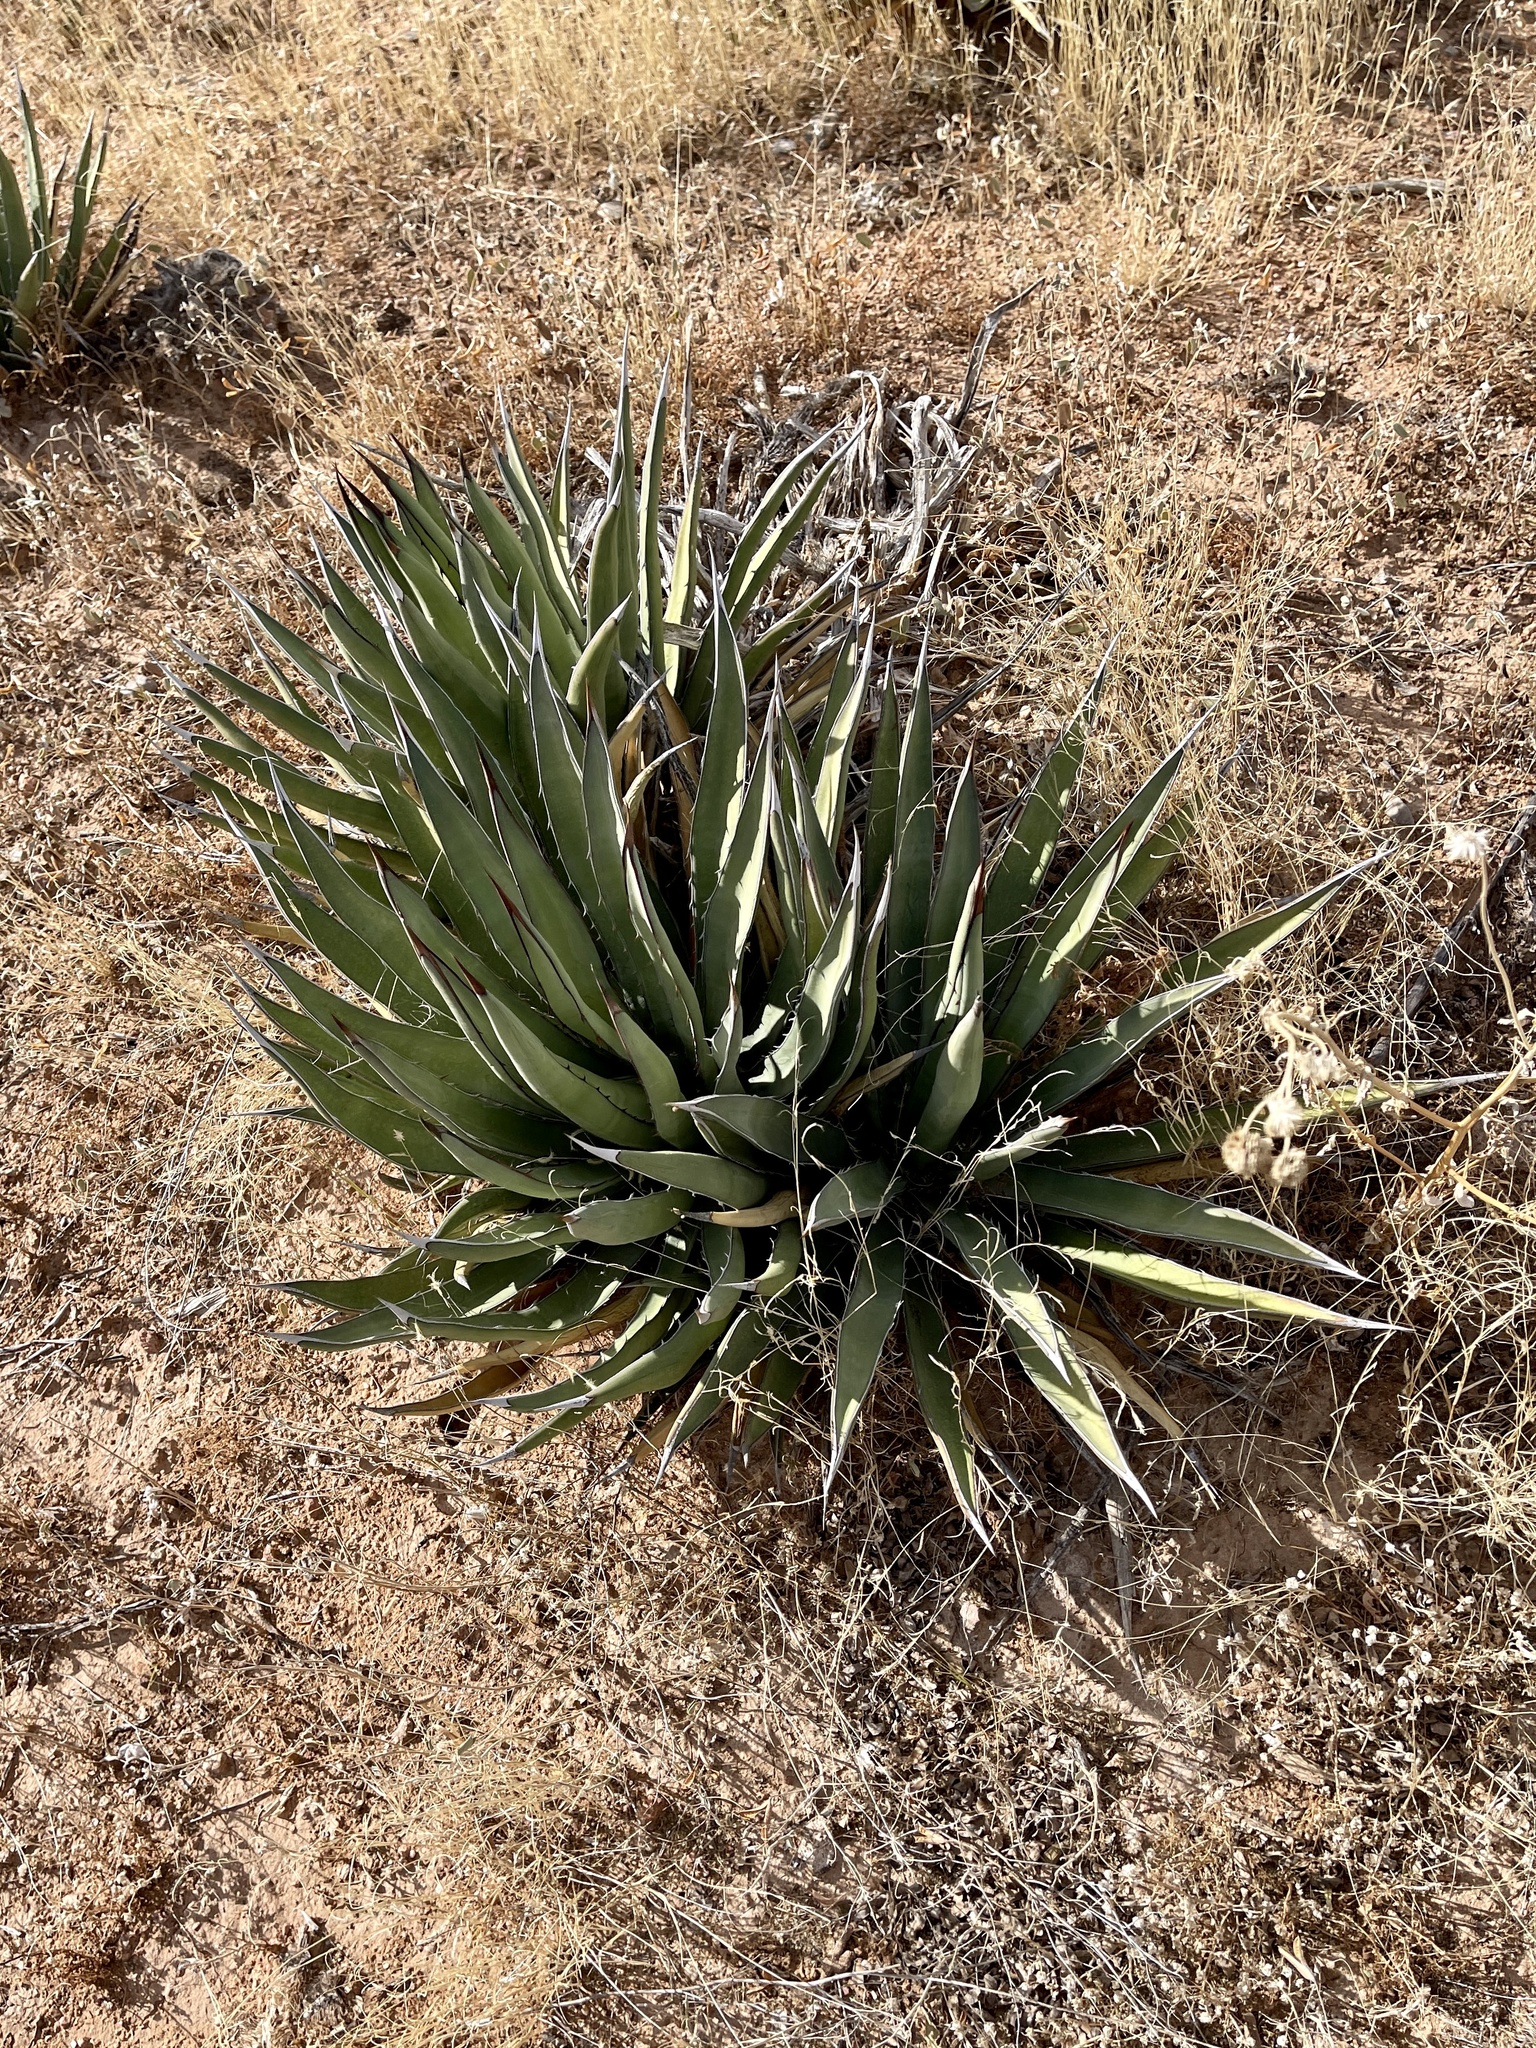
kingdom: Plantae
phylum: Tracheophyta
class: Liliopsida
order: Asparagales
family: Asparagaceae
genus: Agave
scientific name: Agave lechuguilla
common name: Lecheguilla agave
